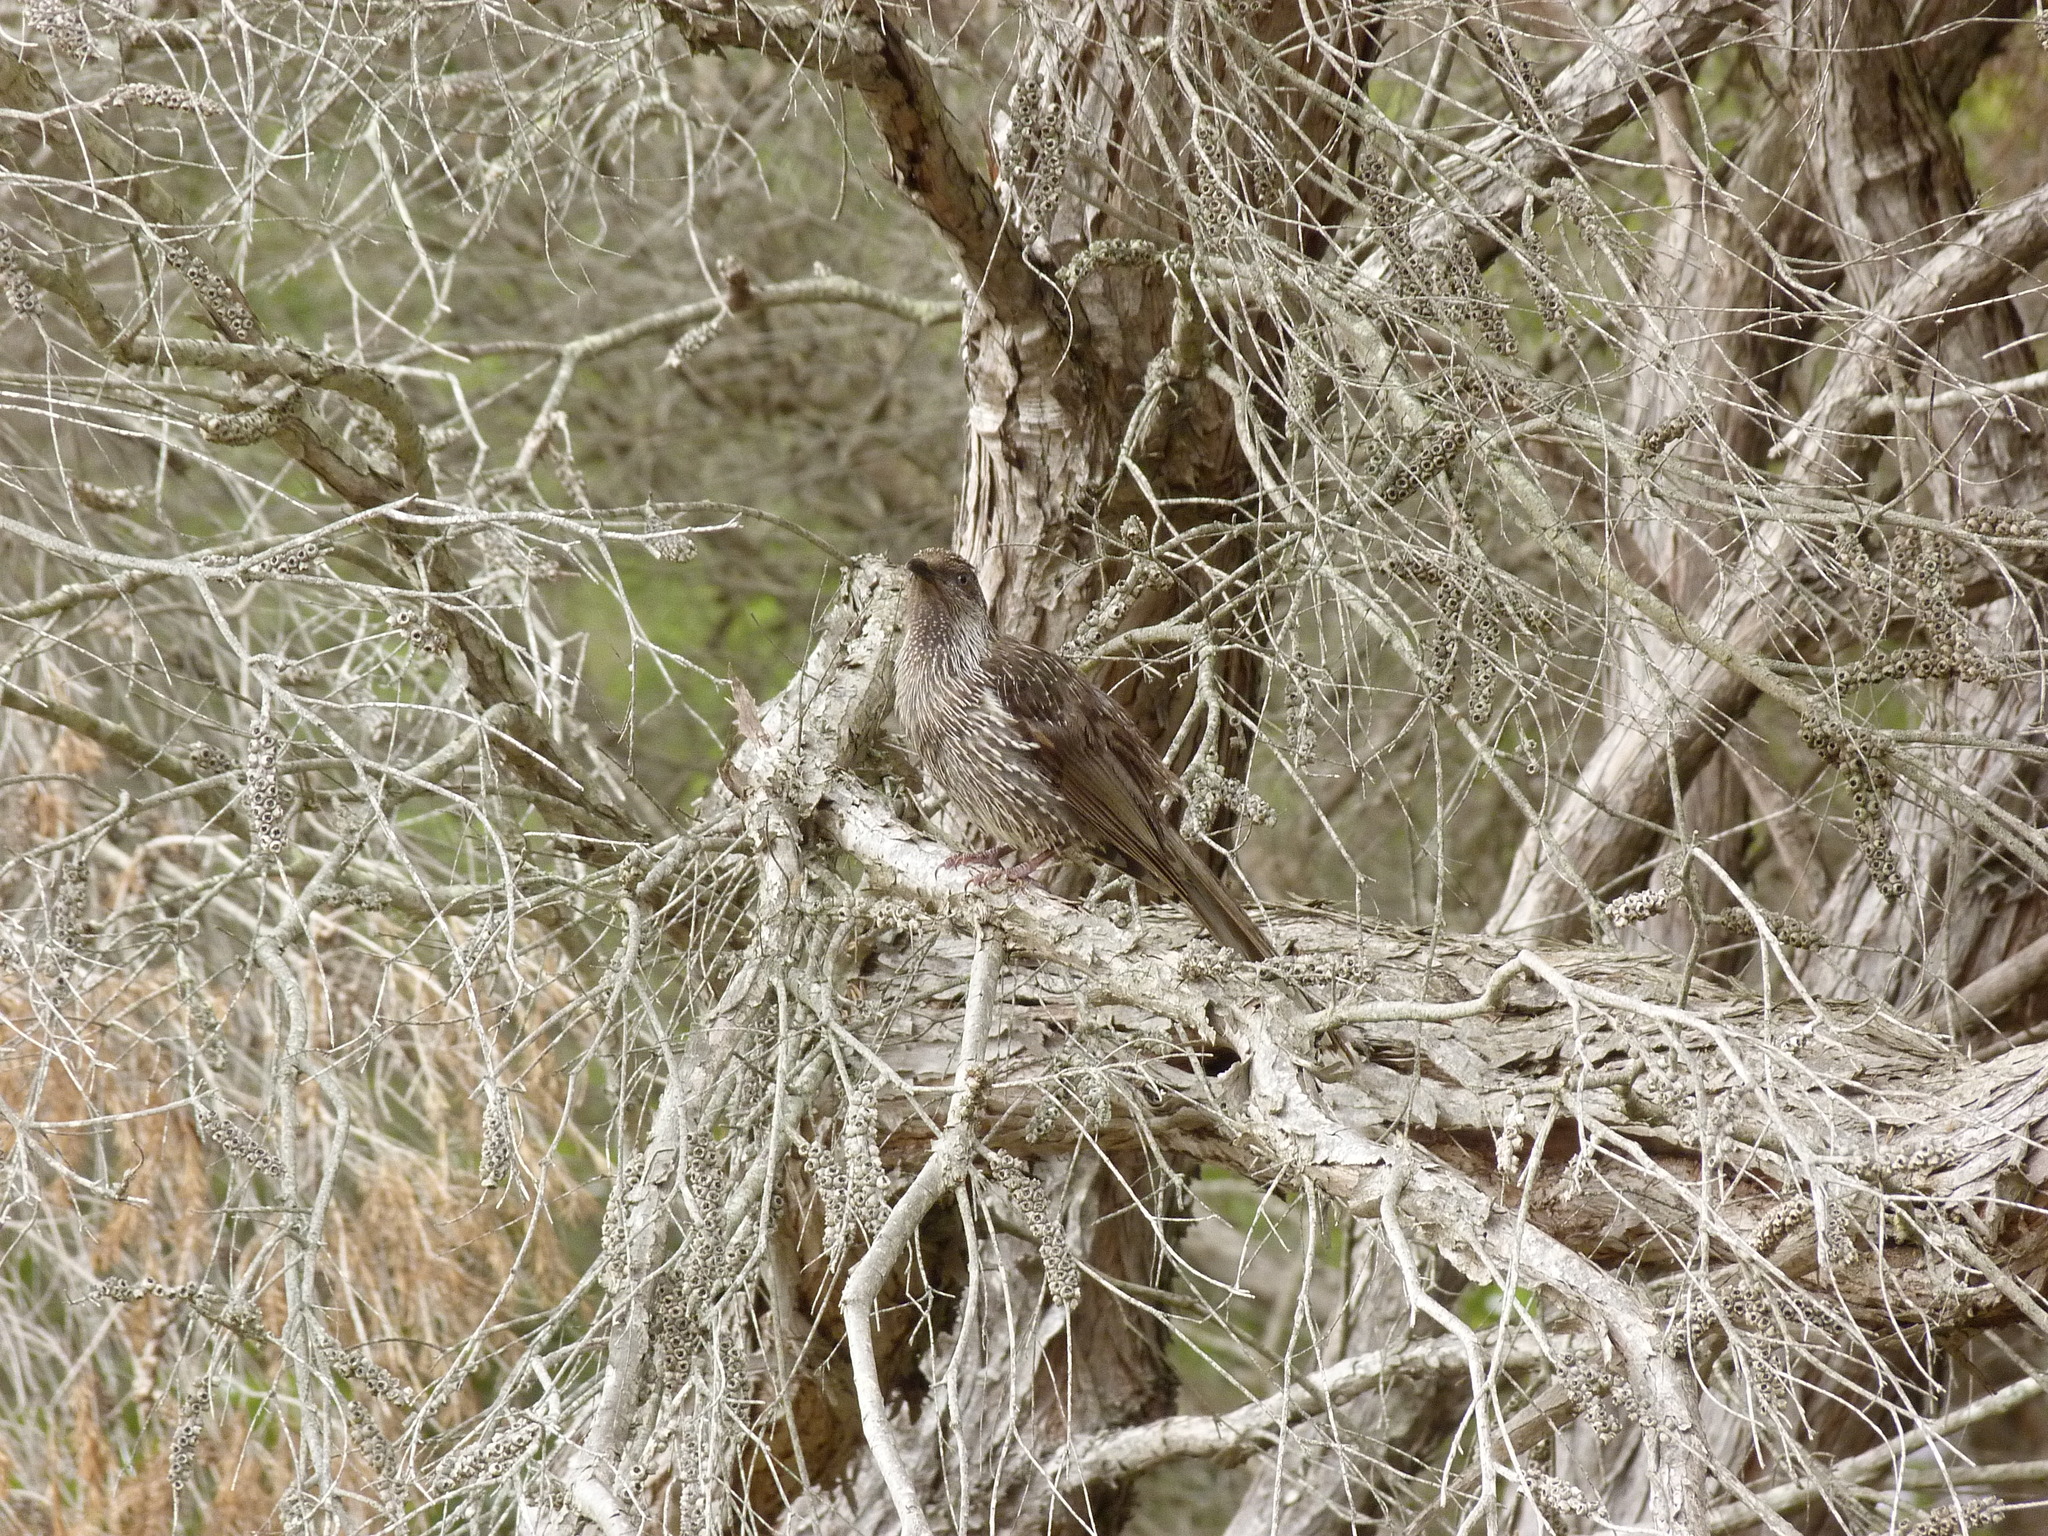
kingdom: Animalia
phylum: Chordata
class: Aves
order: Passeriformes
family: Meliphagidae
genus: Anthochaera
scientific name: Anthochaera chrysoptera
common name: Little wattlebird
